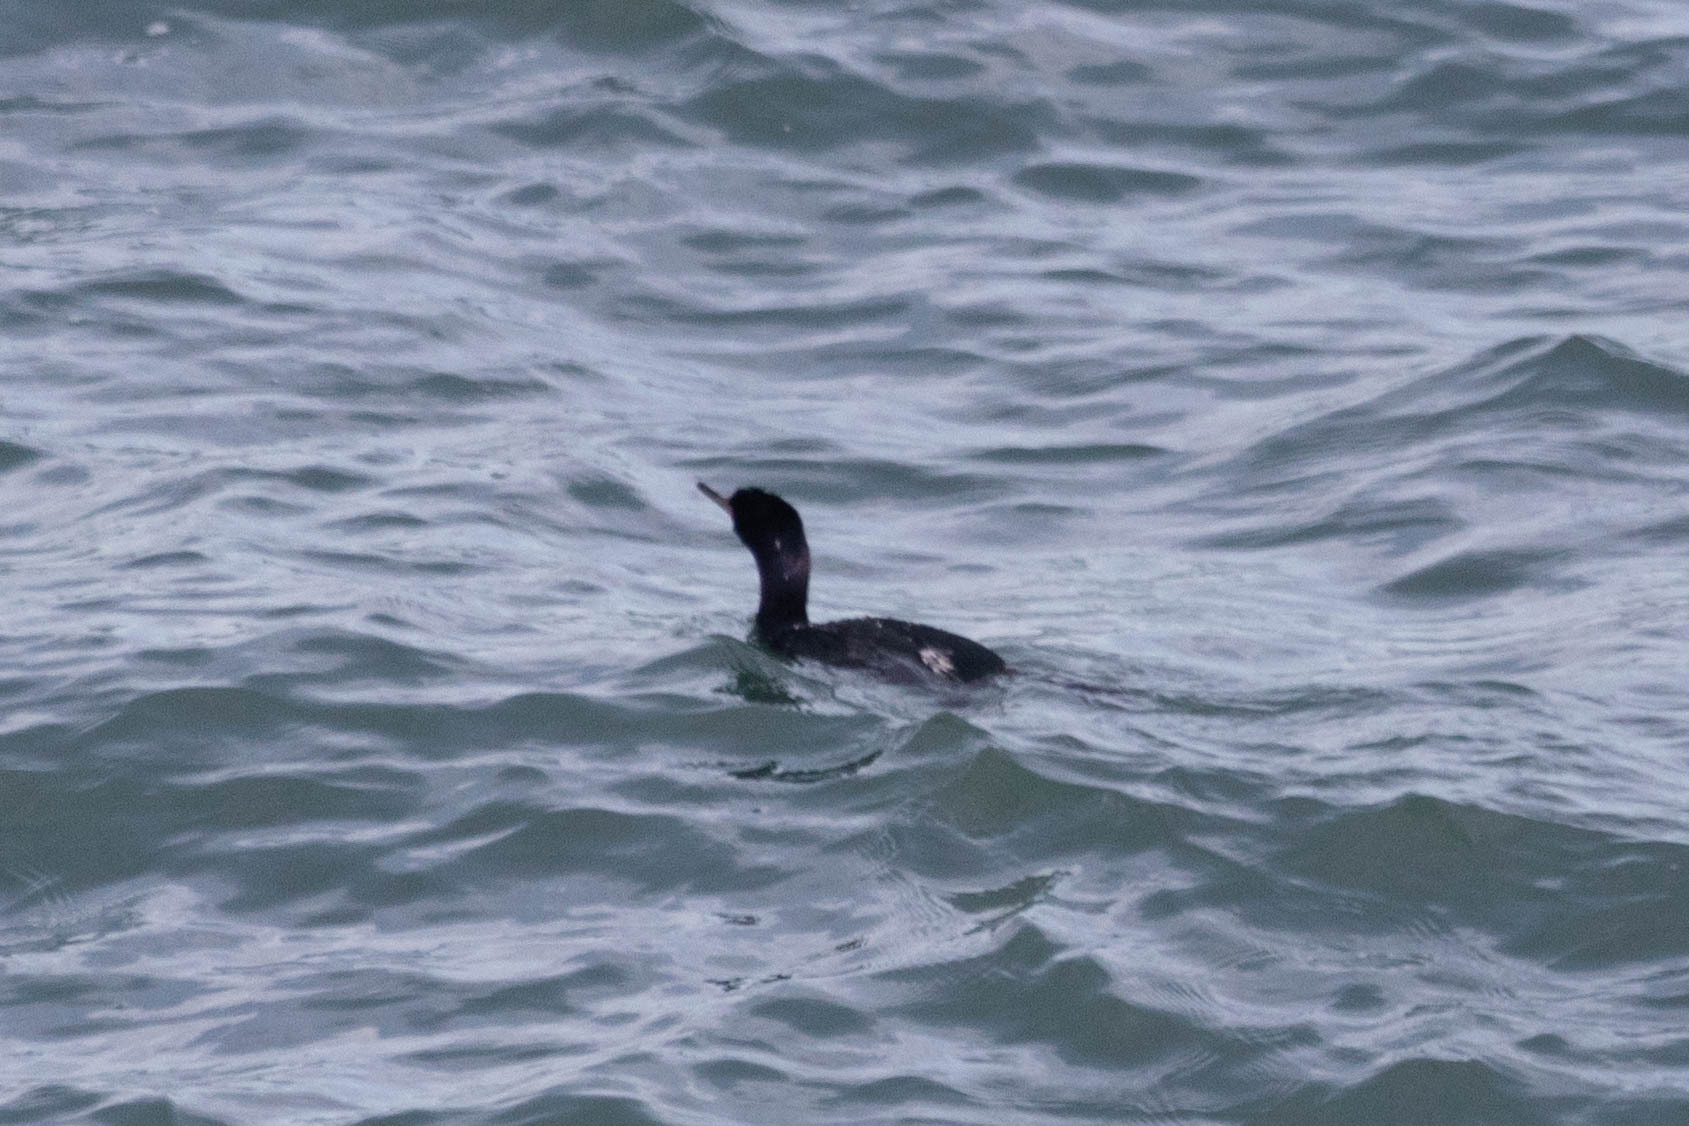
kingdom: Animalia
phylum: Chordata
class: Aves
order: Suliformes
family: Phalacrocoracidae
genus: Phalacrocorax
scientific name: Phalacrocorax pelagicus
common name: Pelagic cormorant
